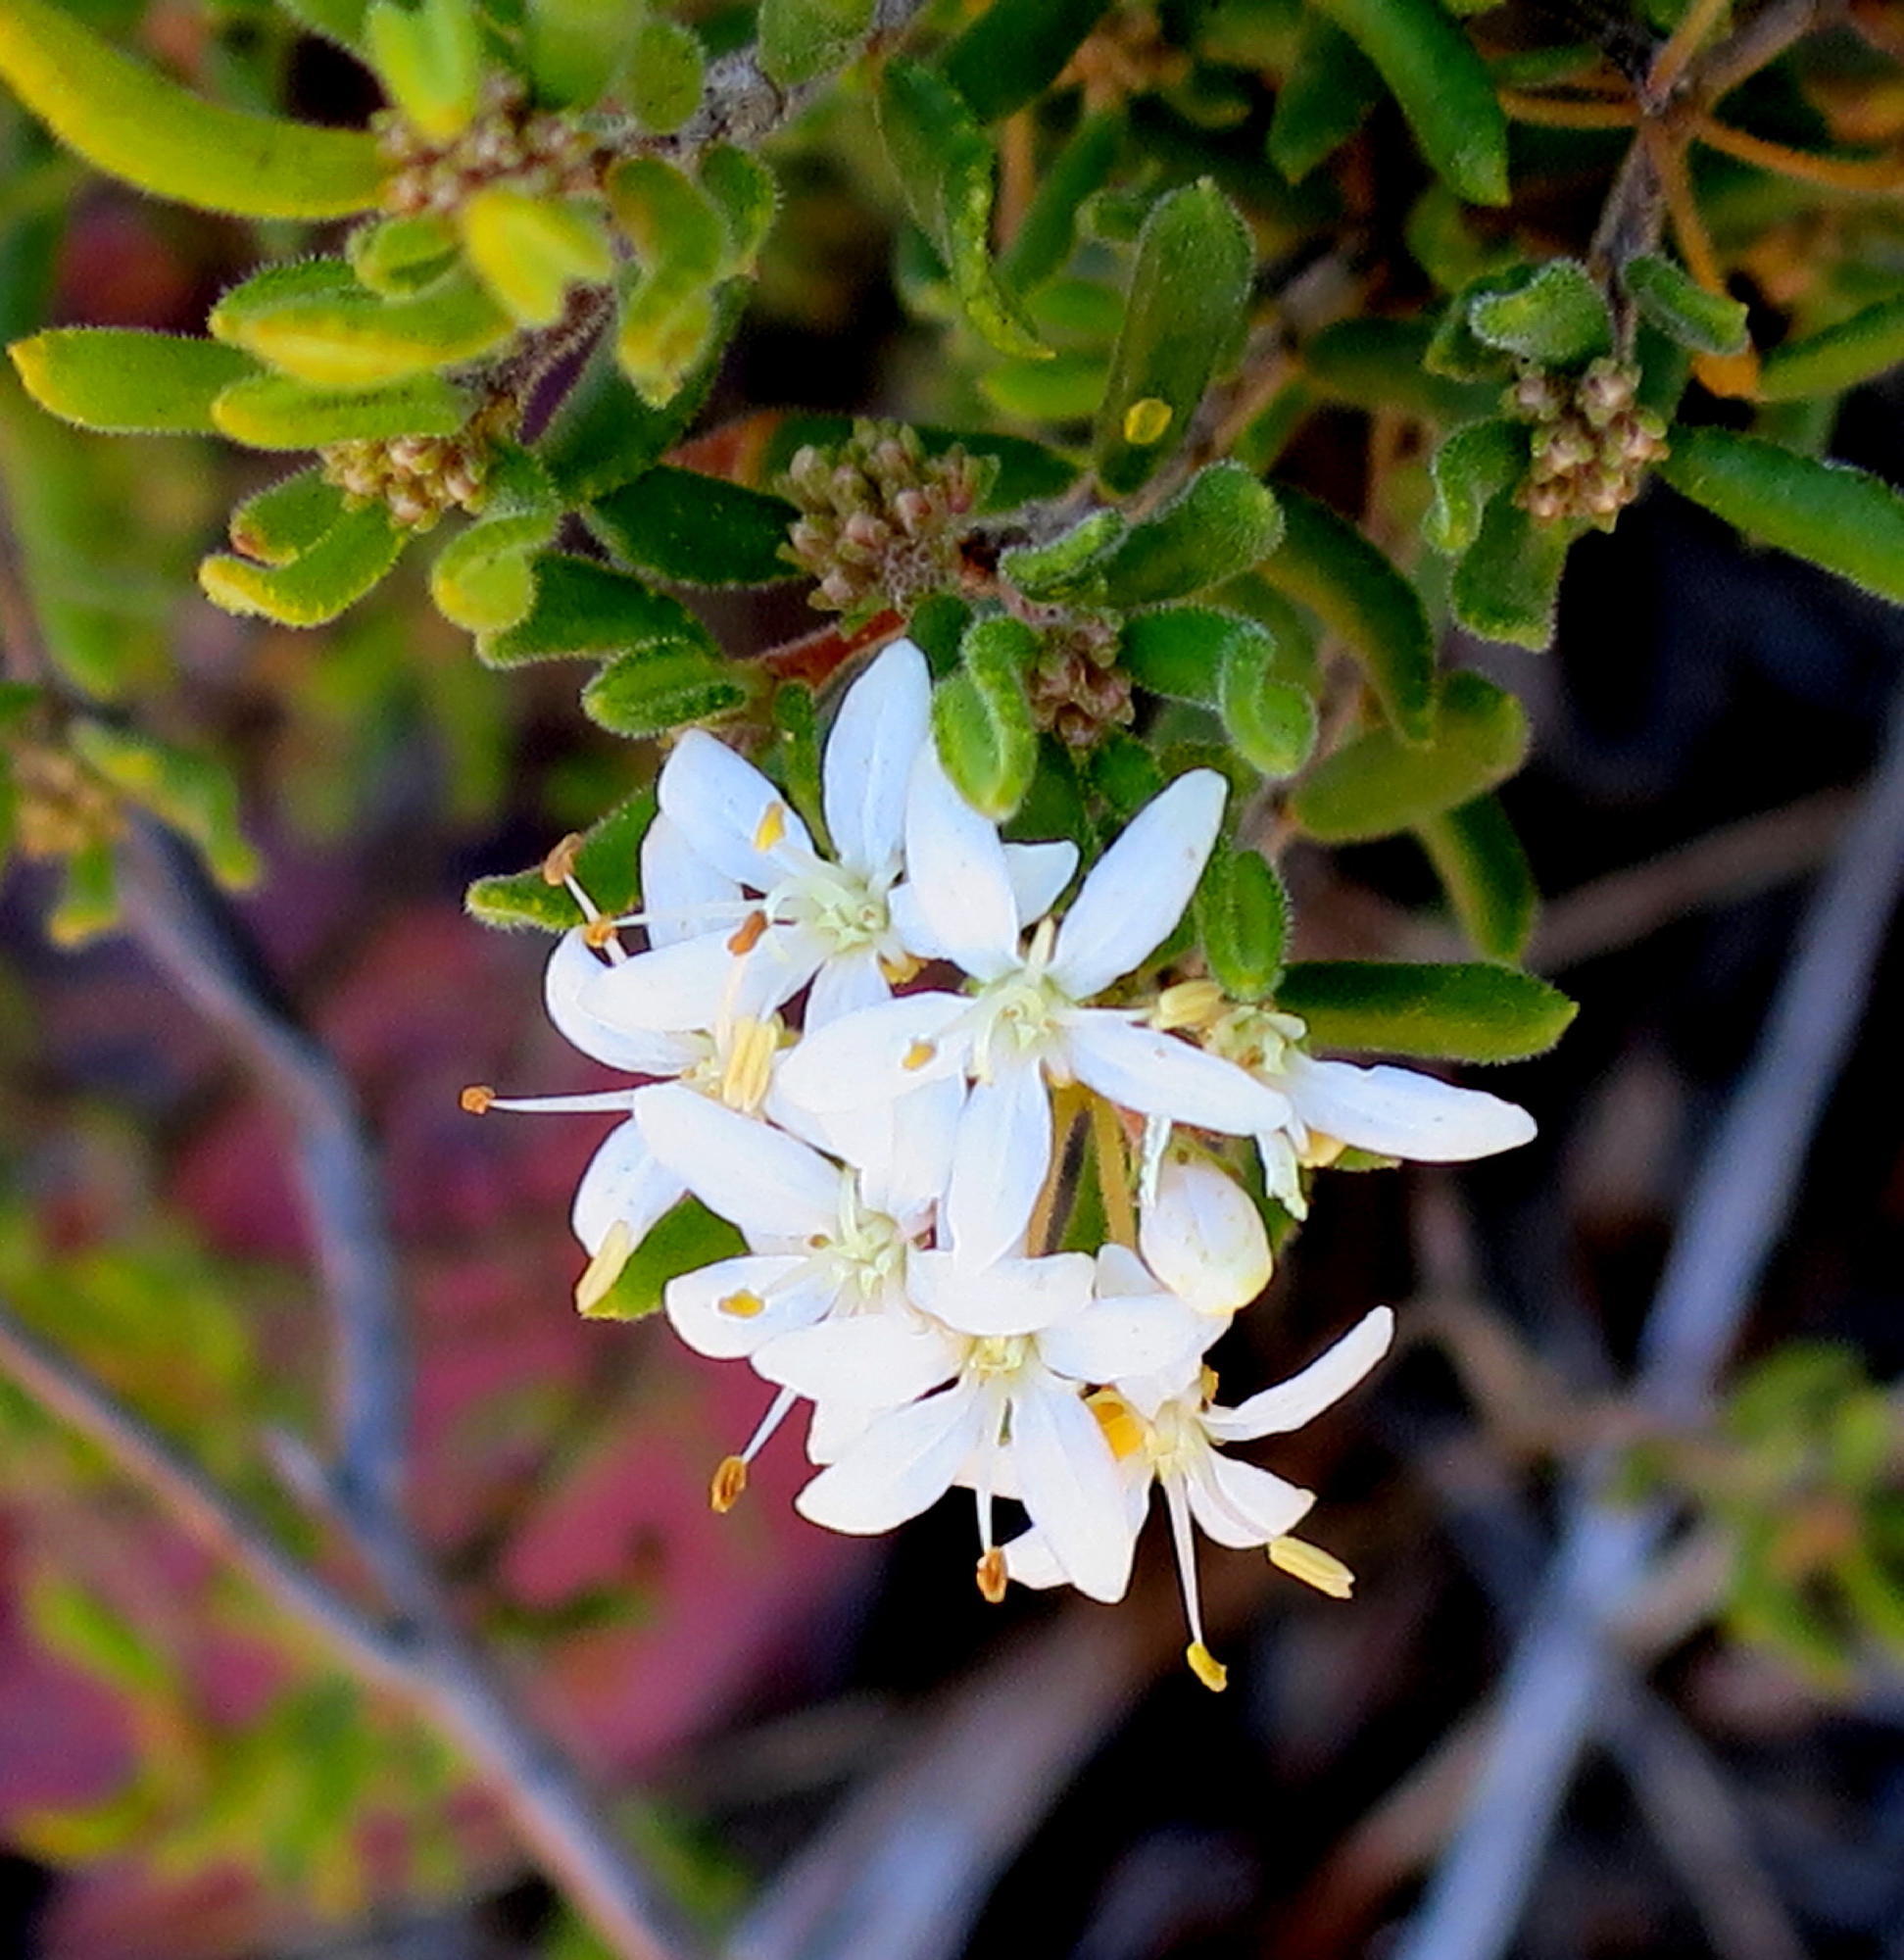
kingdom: Plantae
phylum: Tracheophyta
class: Magnoliopsida
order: Sapindales
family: Rutaceae
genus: Agathosma
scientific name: Agathosma mundtii
